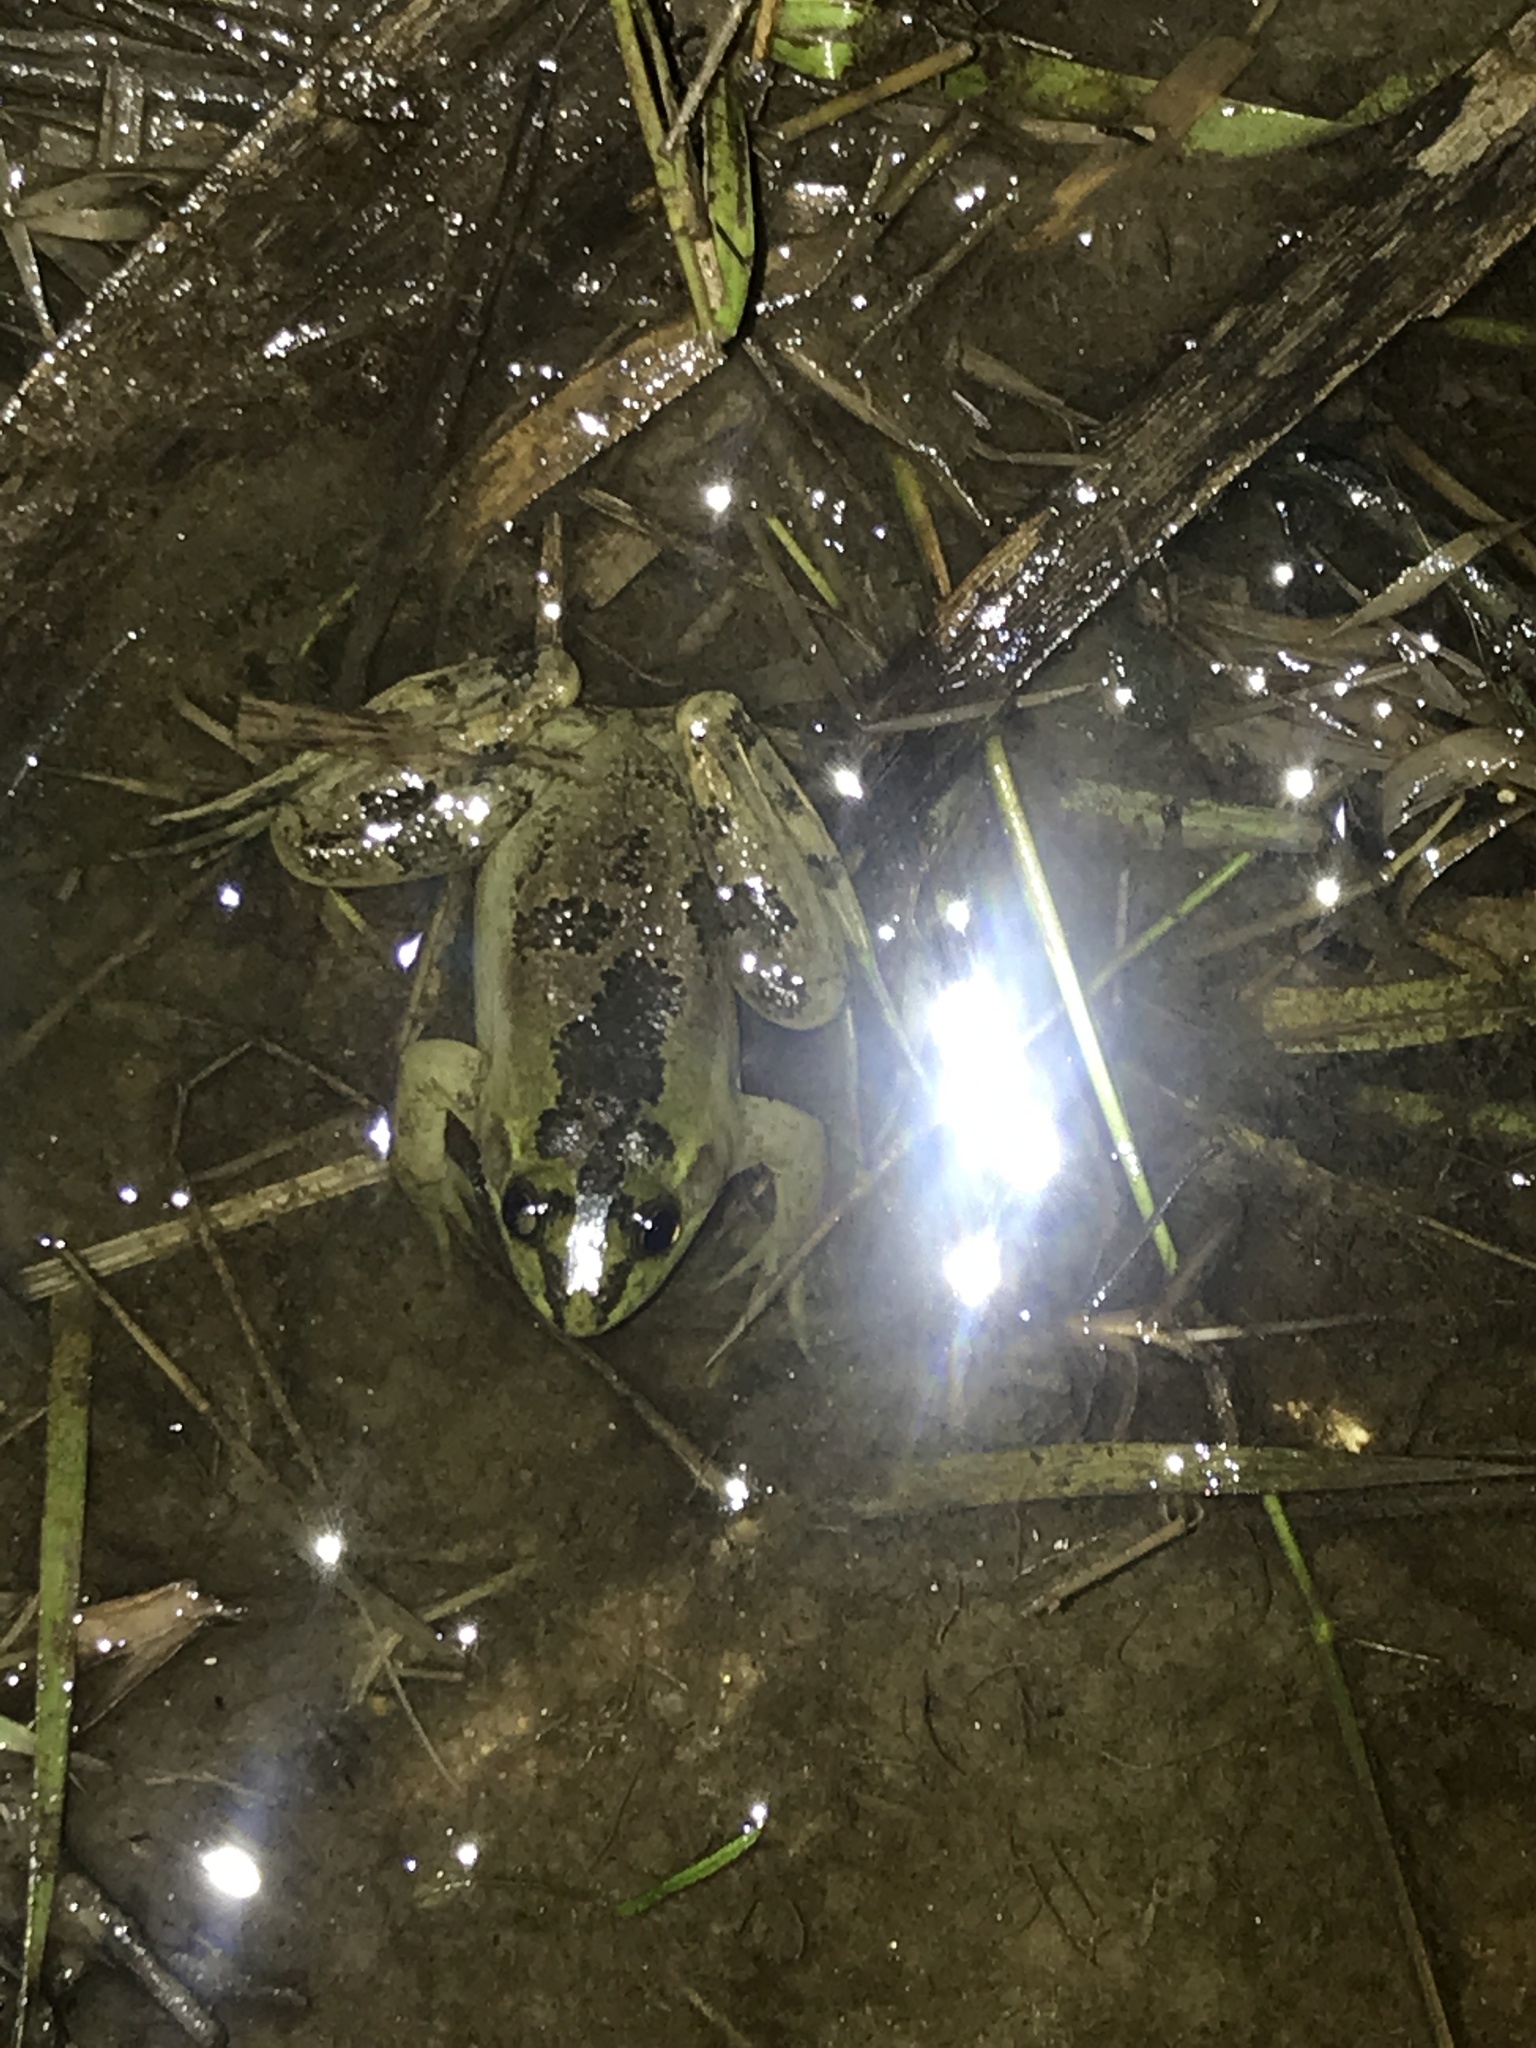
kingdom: Animalia
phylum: Chordata
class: Amphibia
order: Anura
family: Hylidae
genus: Pseudis
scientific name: Pseudis minuta
